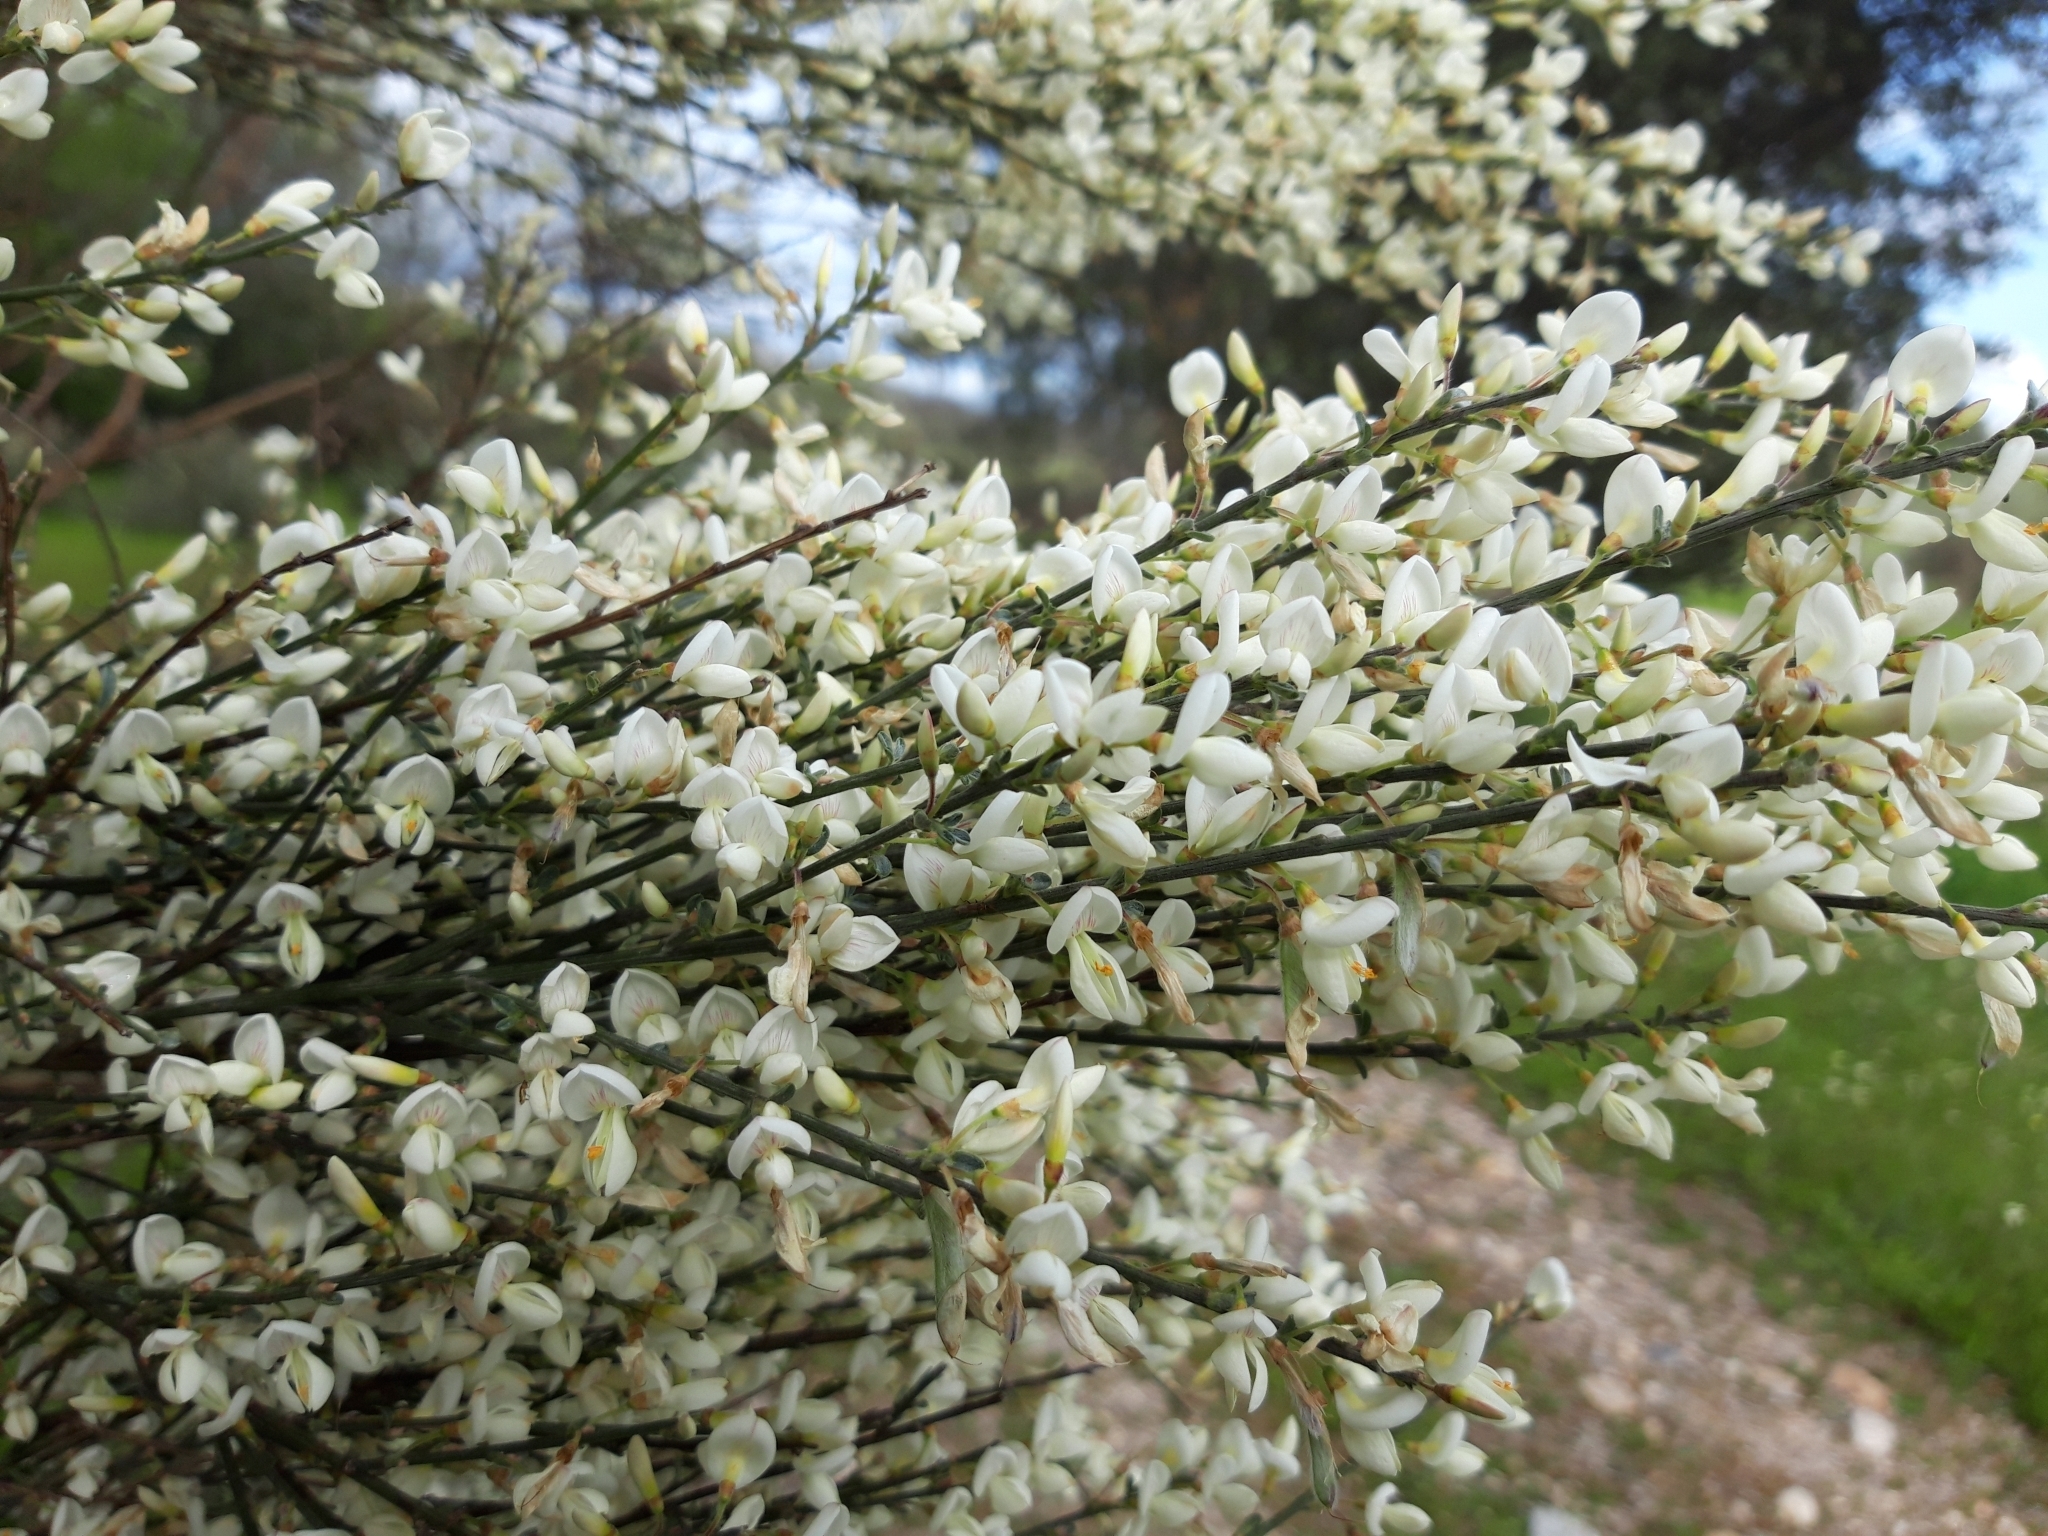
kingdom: Plantae
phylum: Tracheophyta
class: Magnoliopsida
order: Fabales
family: Fabaceae
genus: Cytisus
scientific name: Cytisus multiflorus
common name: White broom
